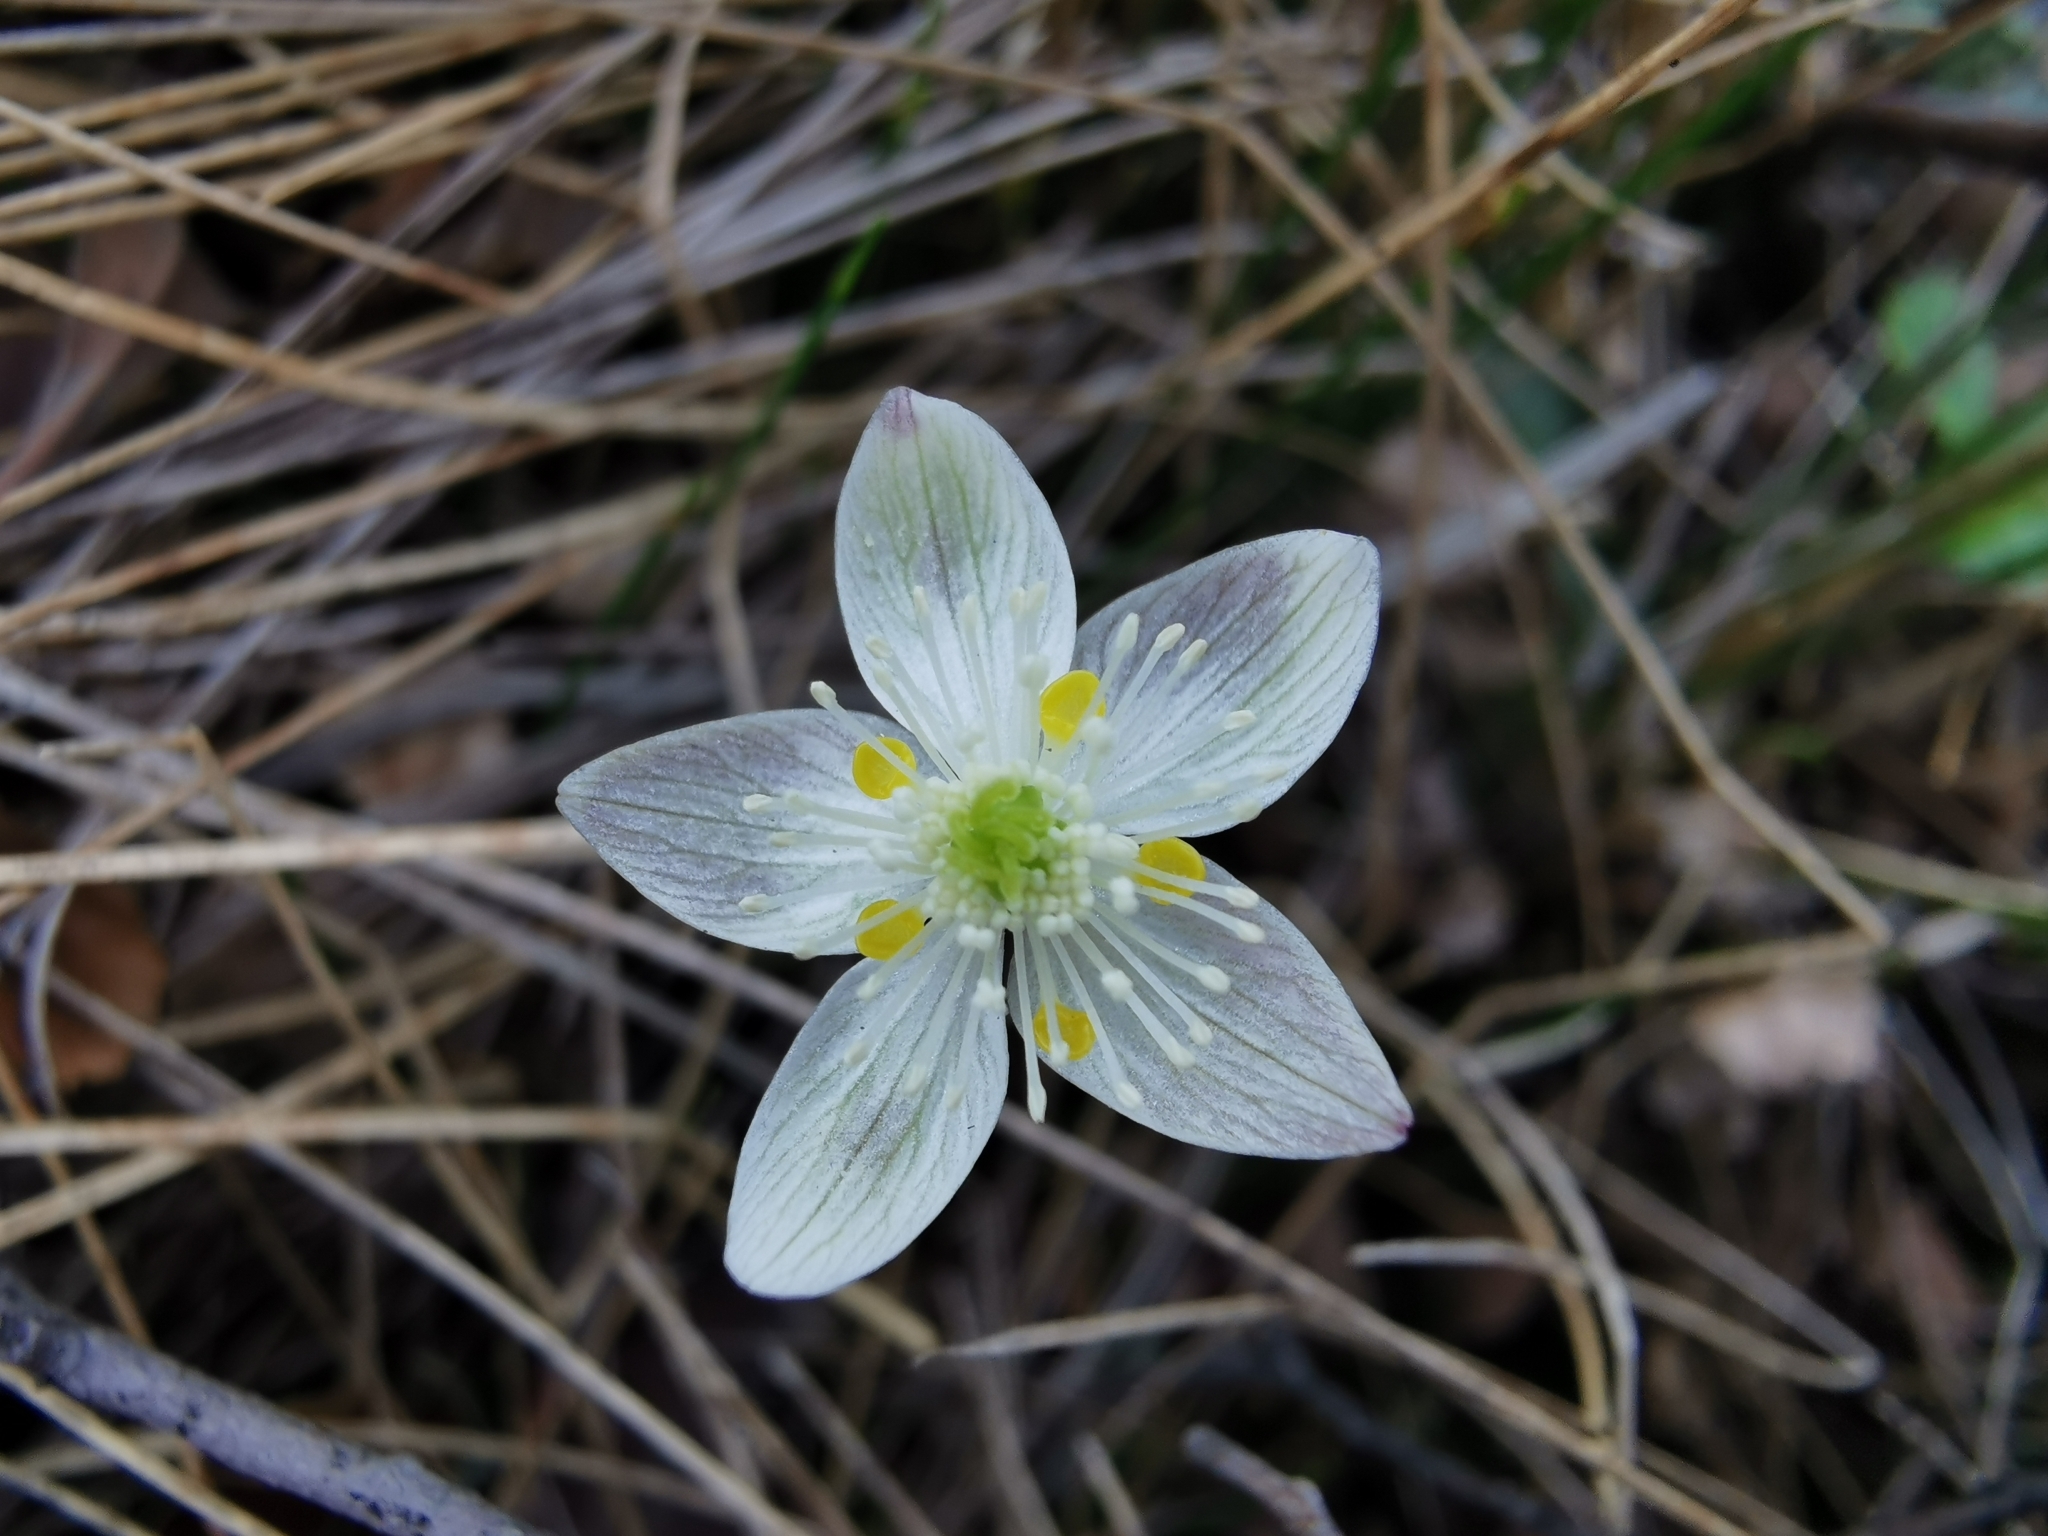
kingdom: Plantae
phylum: Tracheophyta
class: Magnoliopsida
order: Ranunculales
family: Ranunculaceae
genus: Coptis
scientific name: Coptis trifolia
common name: Canker-root
